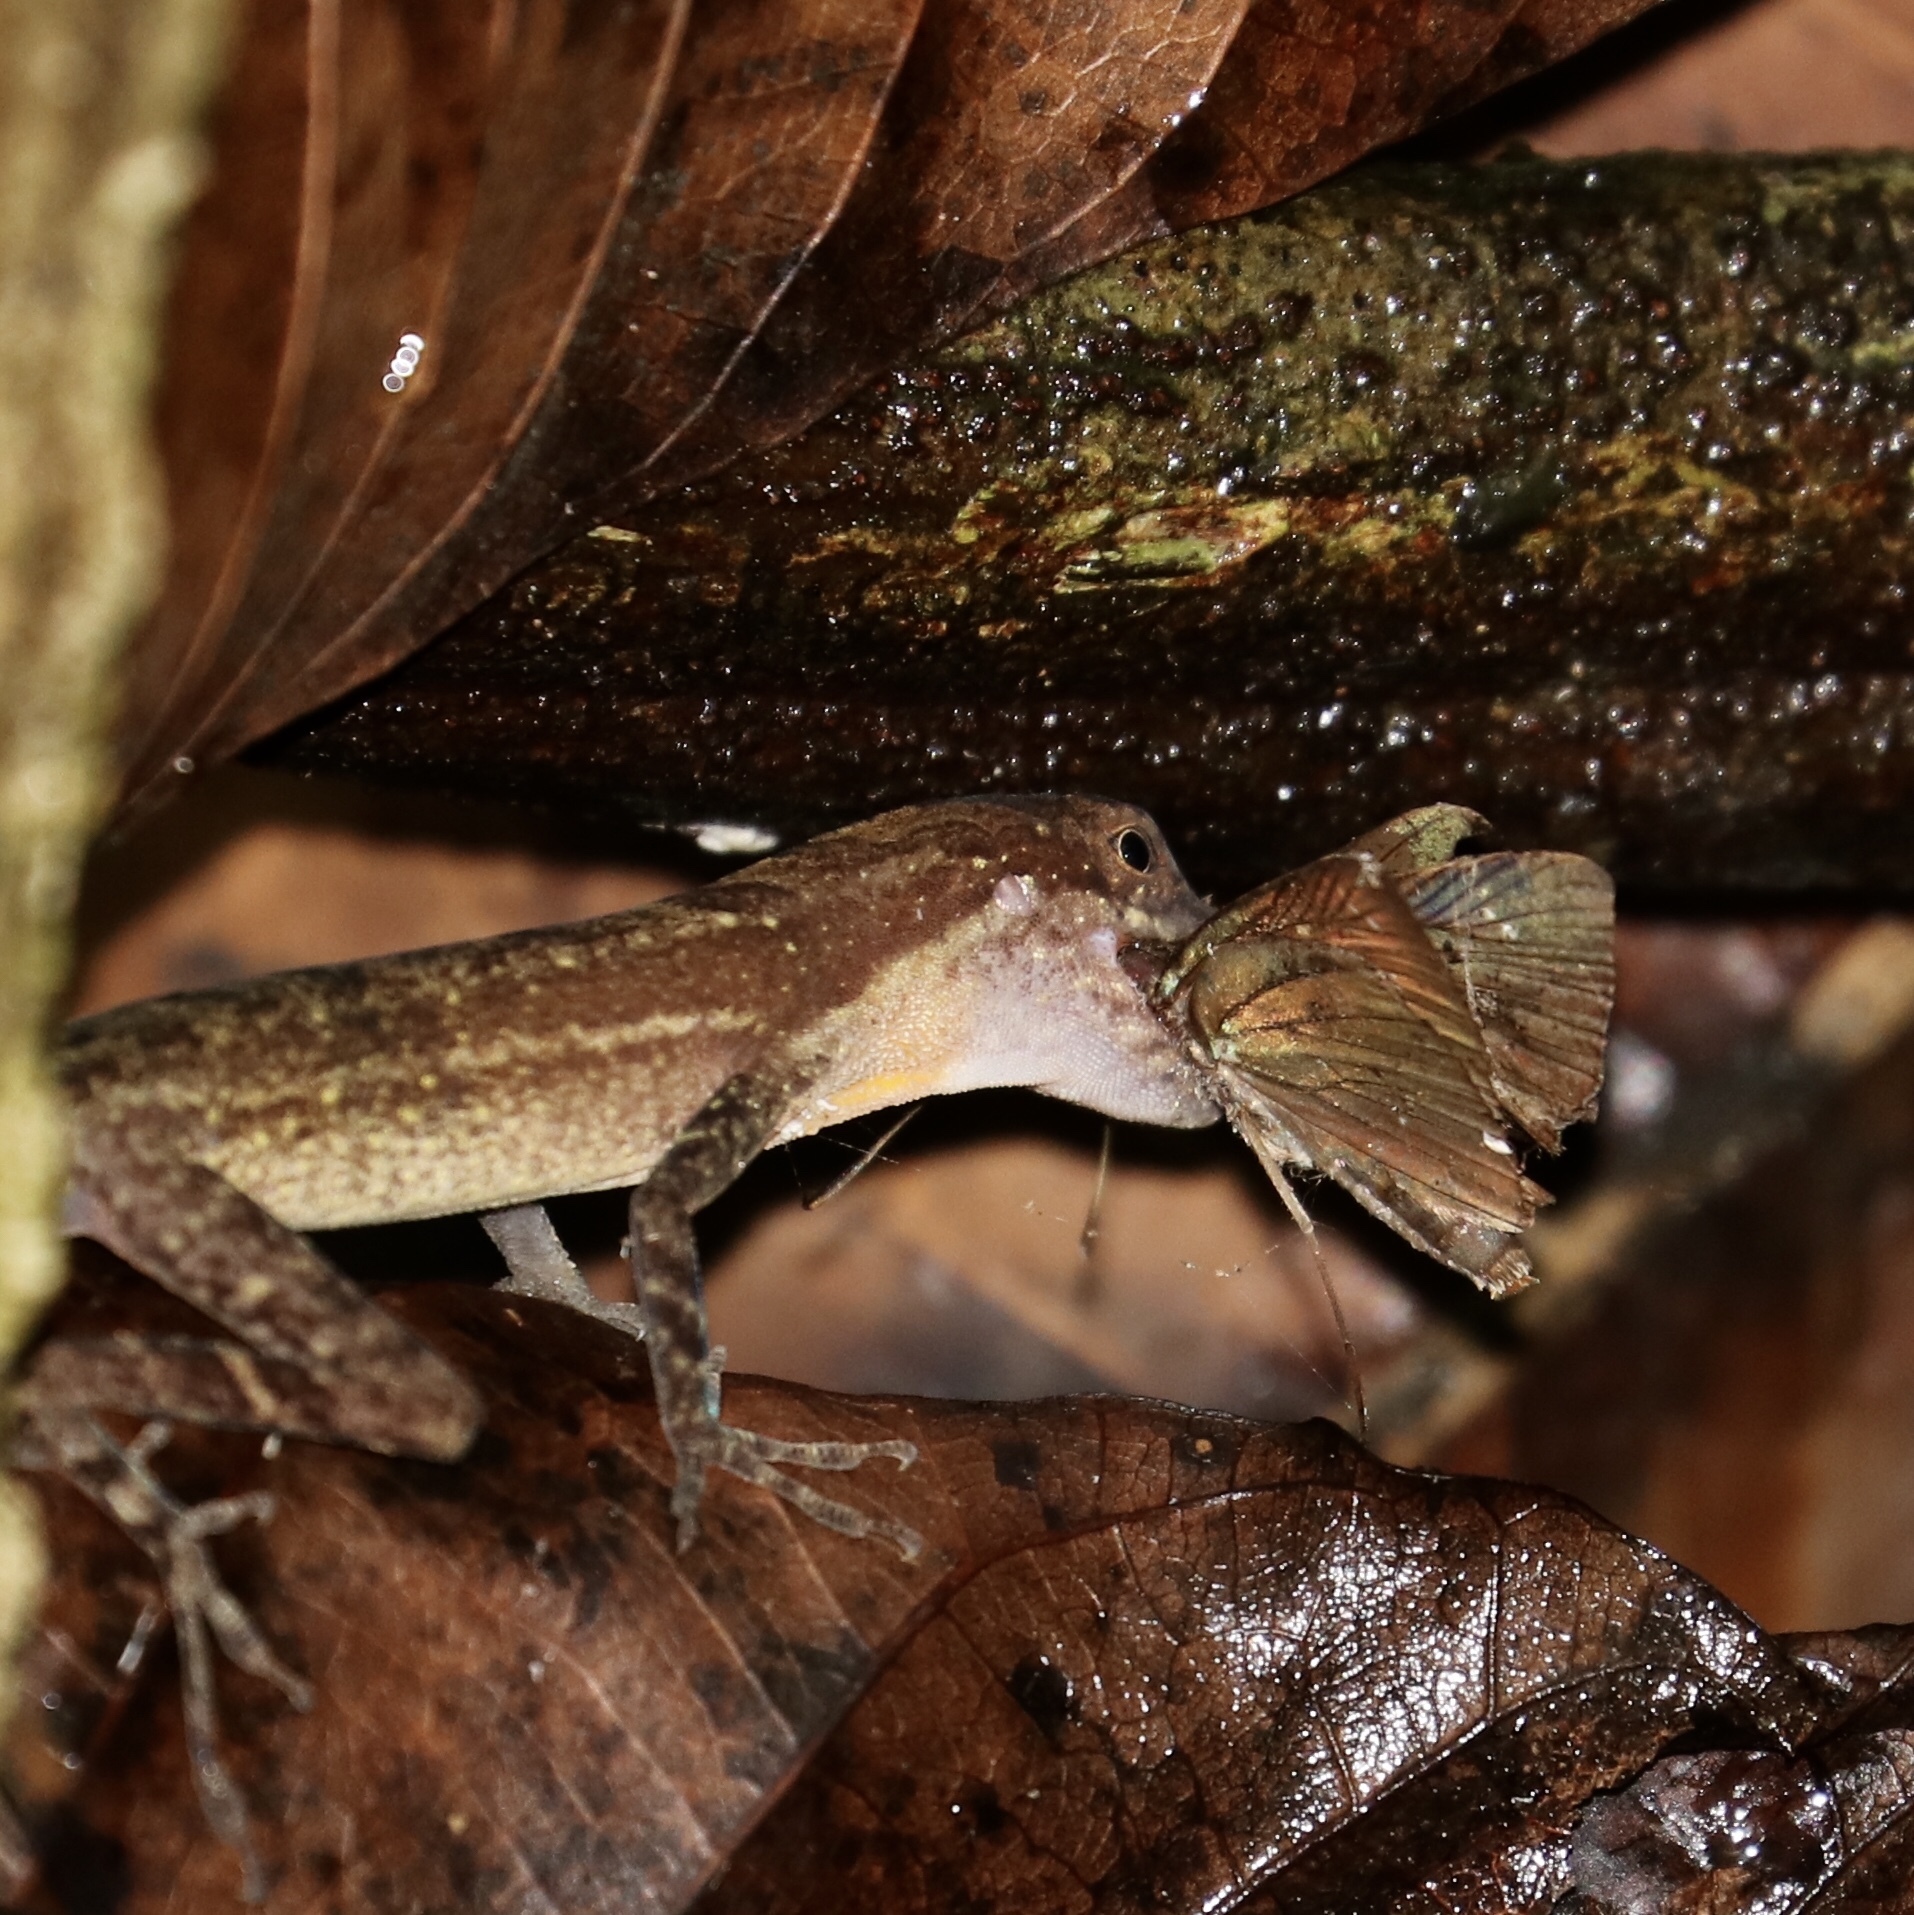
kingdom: Animalia
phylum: Chordata
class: Squamata
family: Dactyloidae
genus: Anolis
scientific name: Anolis apletophallus
